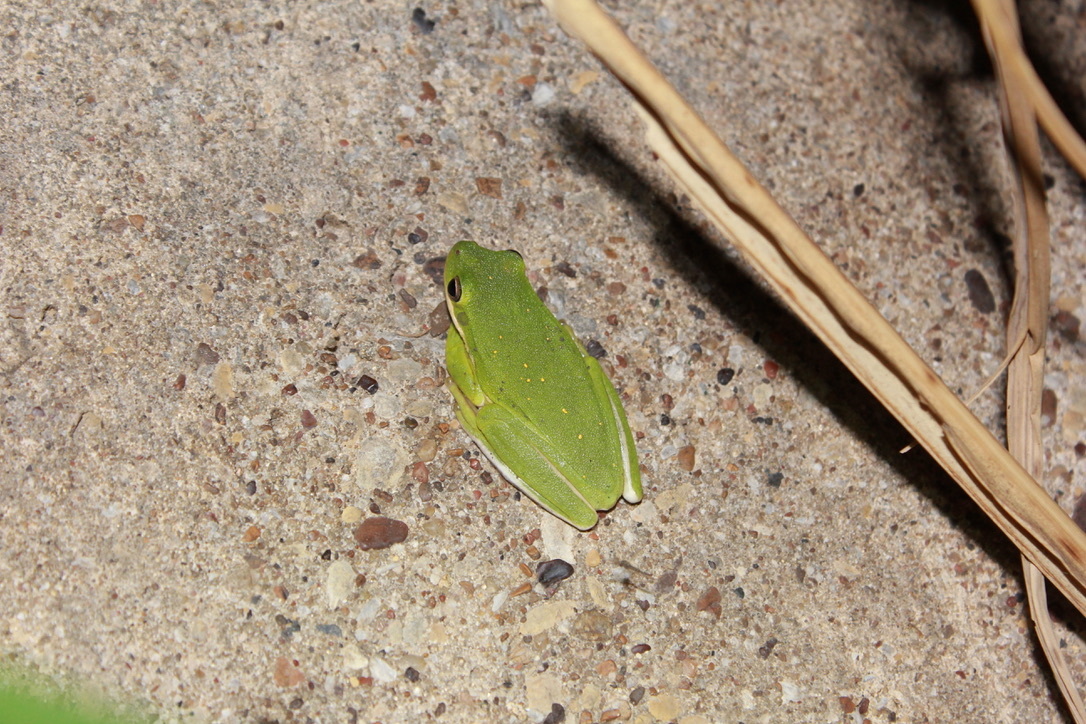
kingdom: Animalia
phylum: Chordata
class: Amphibia
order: Anura
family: Hylidae
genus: Dryophytes
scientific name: Dryophytes cinereus
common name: Green treefrog
